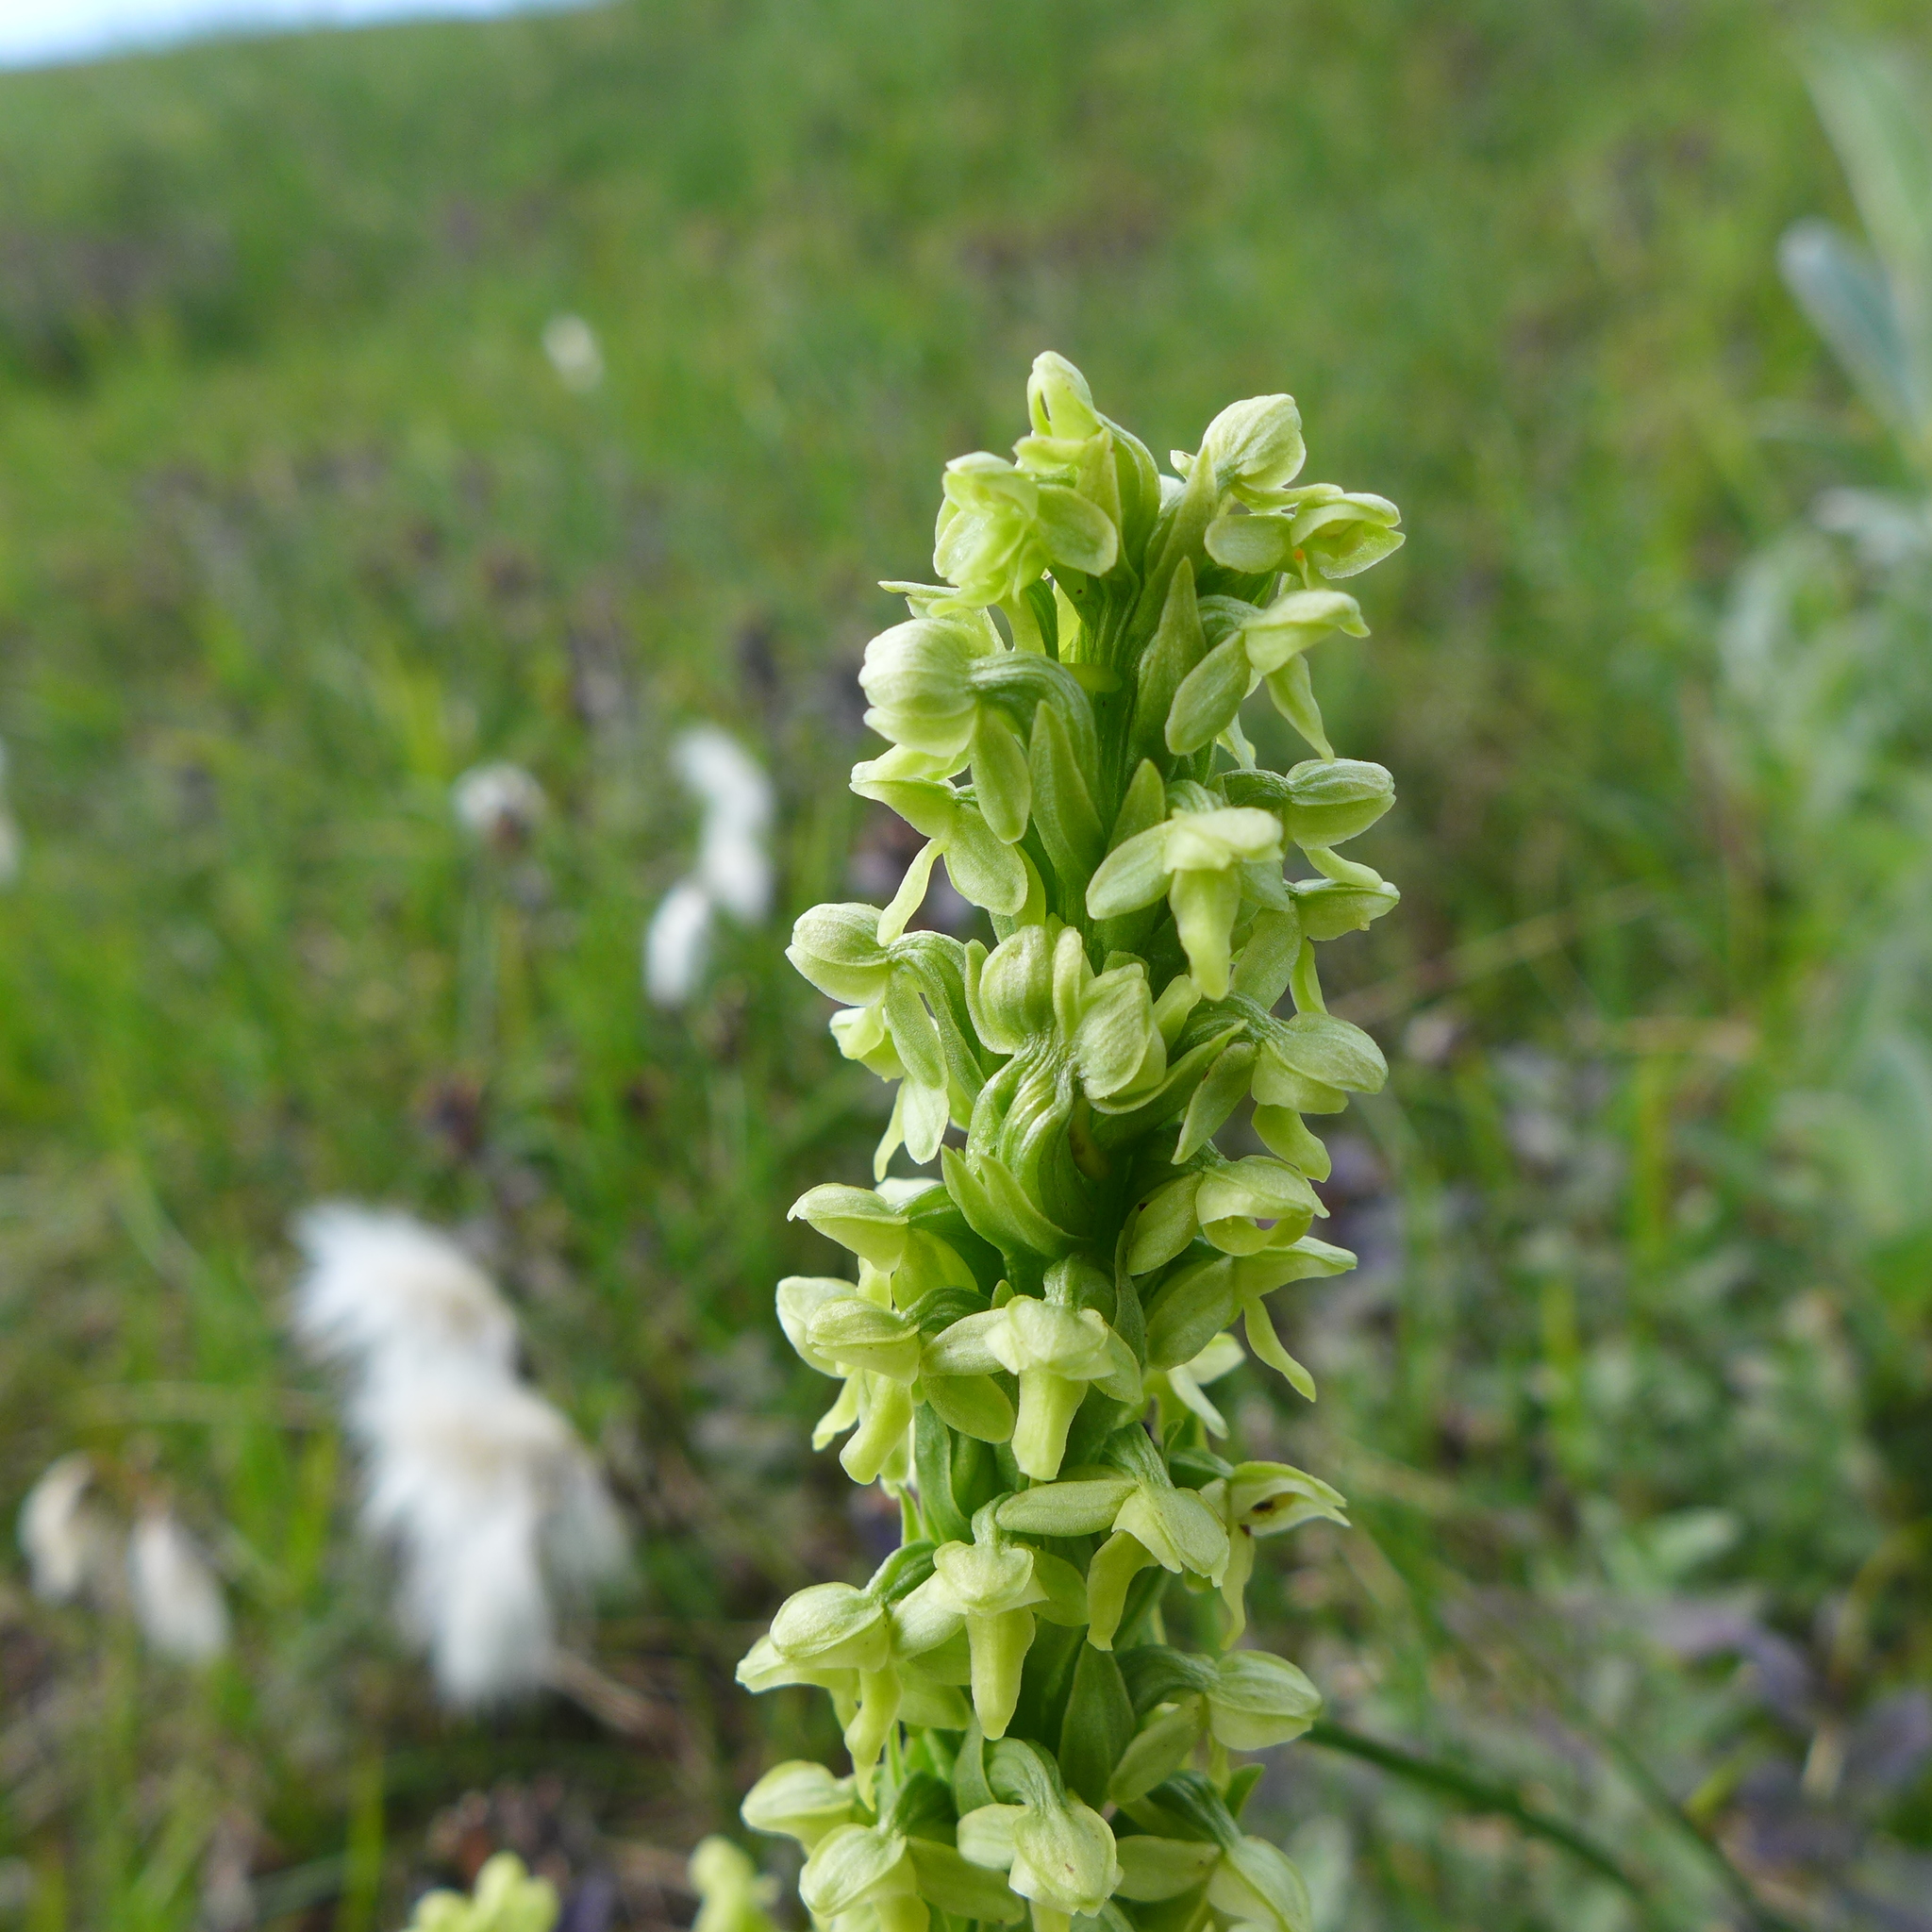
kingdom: Plantae
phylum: Tracheophyta
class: Liliopsida
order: Asparagales
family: Orchidaceae
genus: Platanthera
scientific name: Platanthera hyperborea
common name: Northern green orchid
